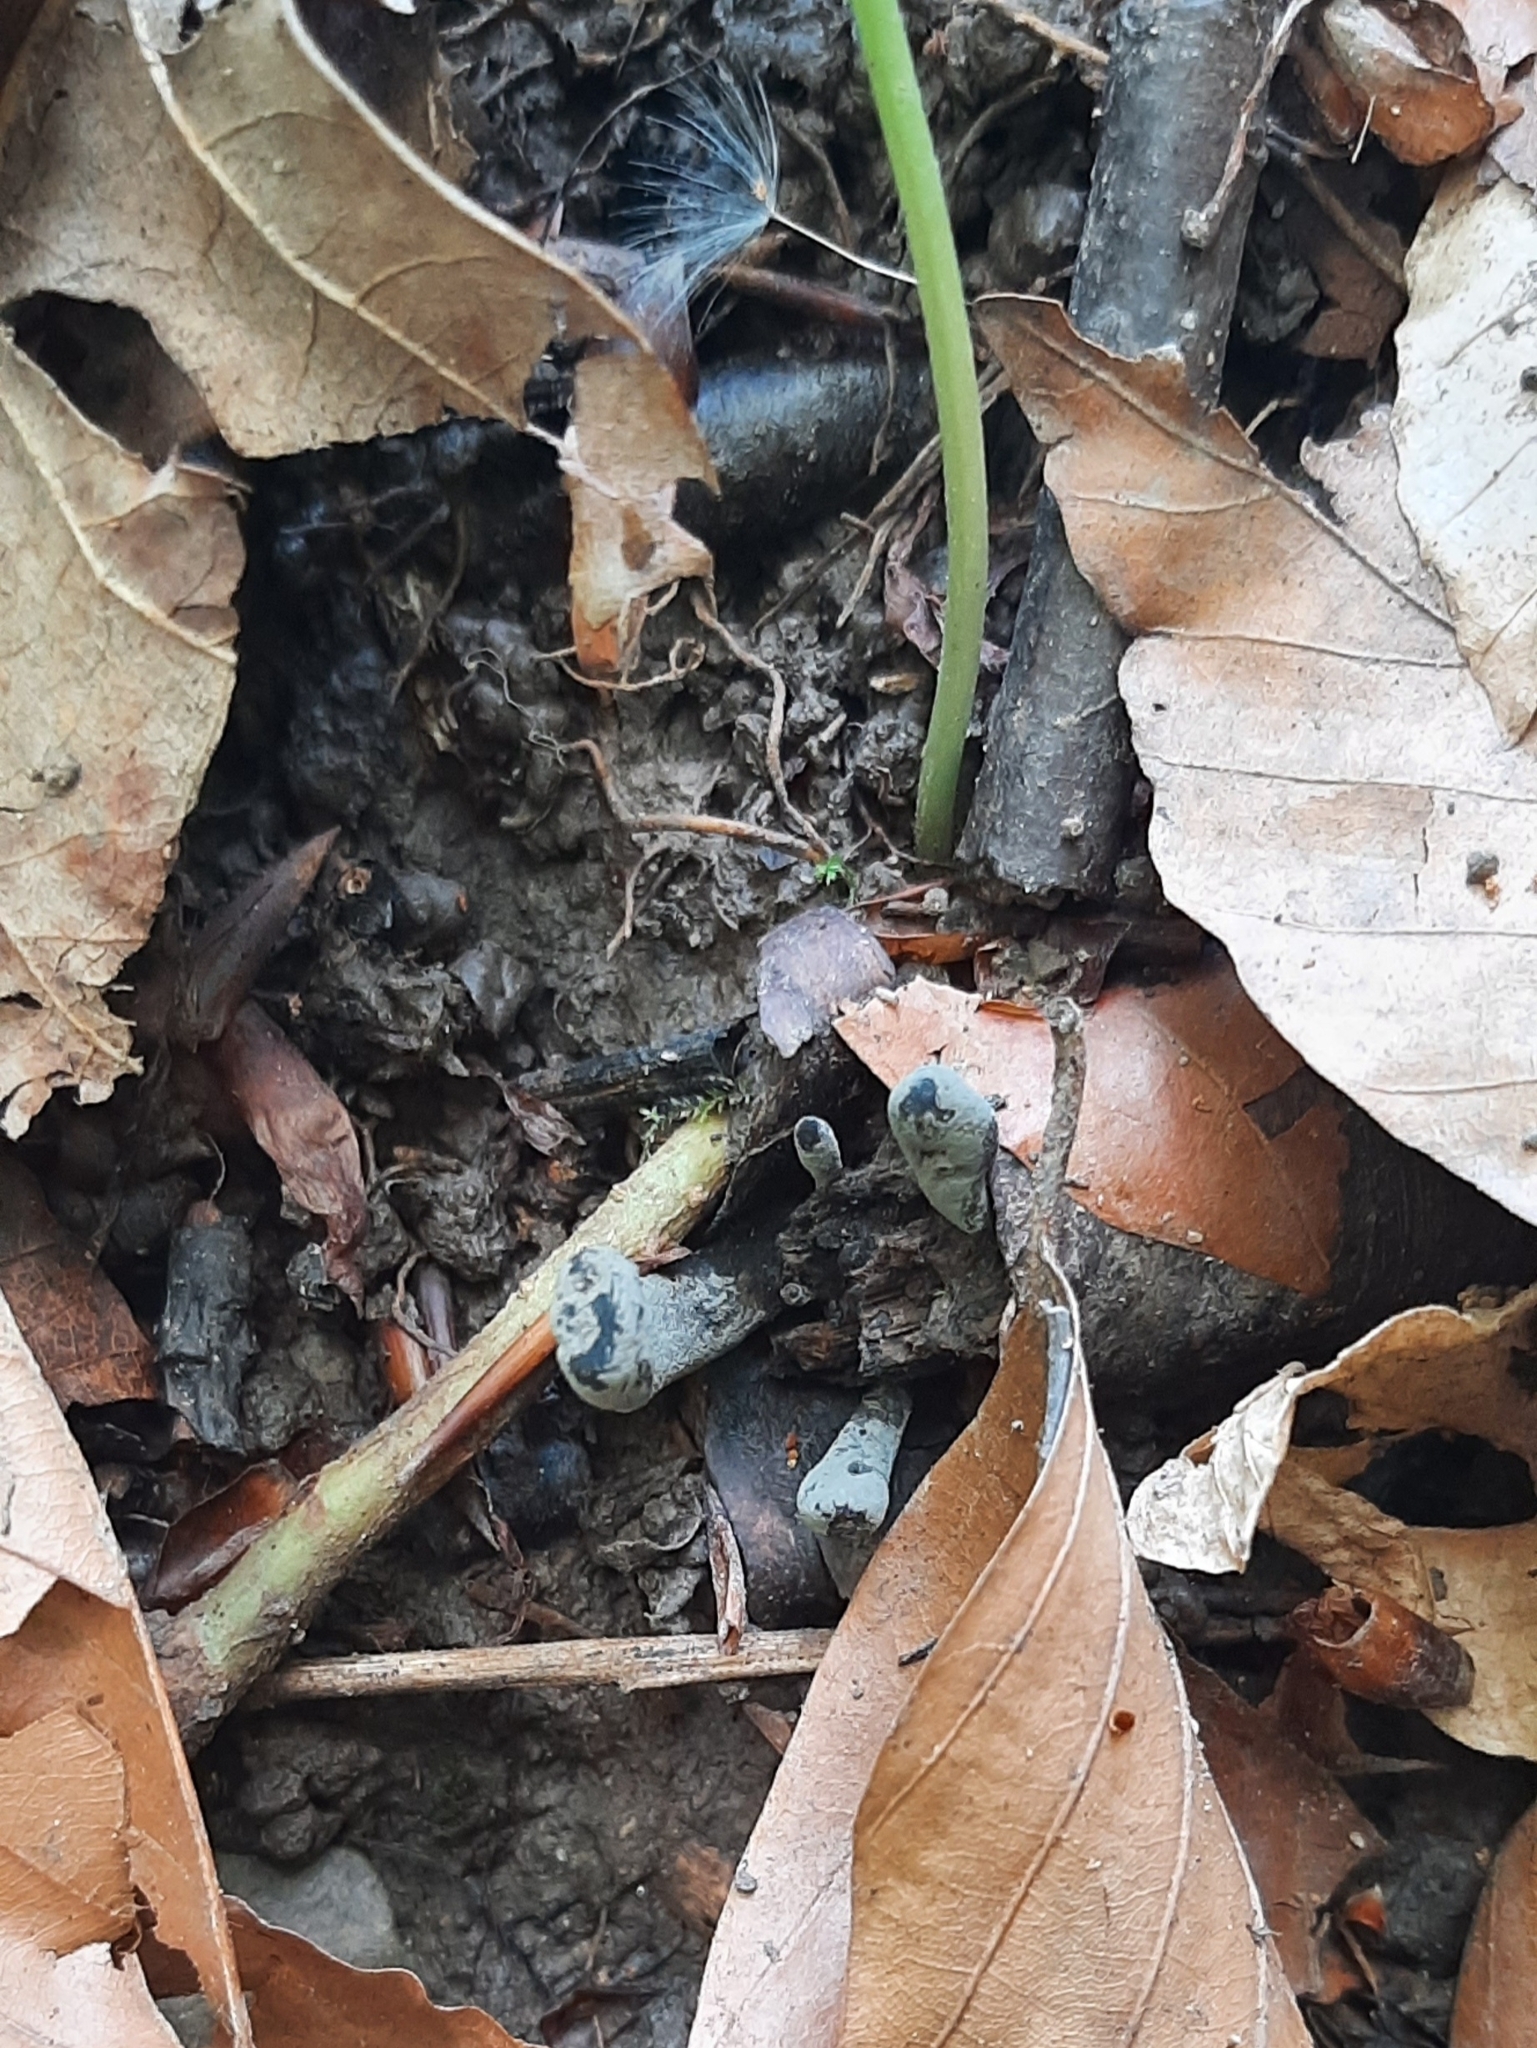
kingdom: Fungi
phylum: Ascomycota
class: Sordariomycetes
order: Xylariales
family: Xylariaceae
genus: Xylaria
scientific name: Xylaria polymorpha
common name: Dead man's fingers
